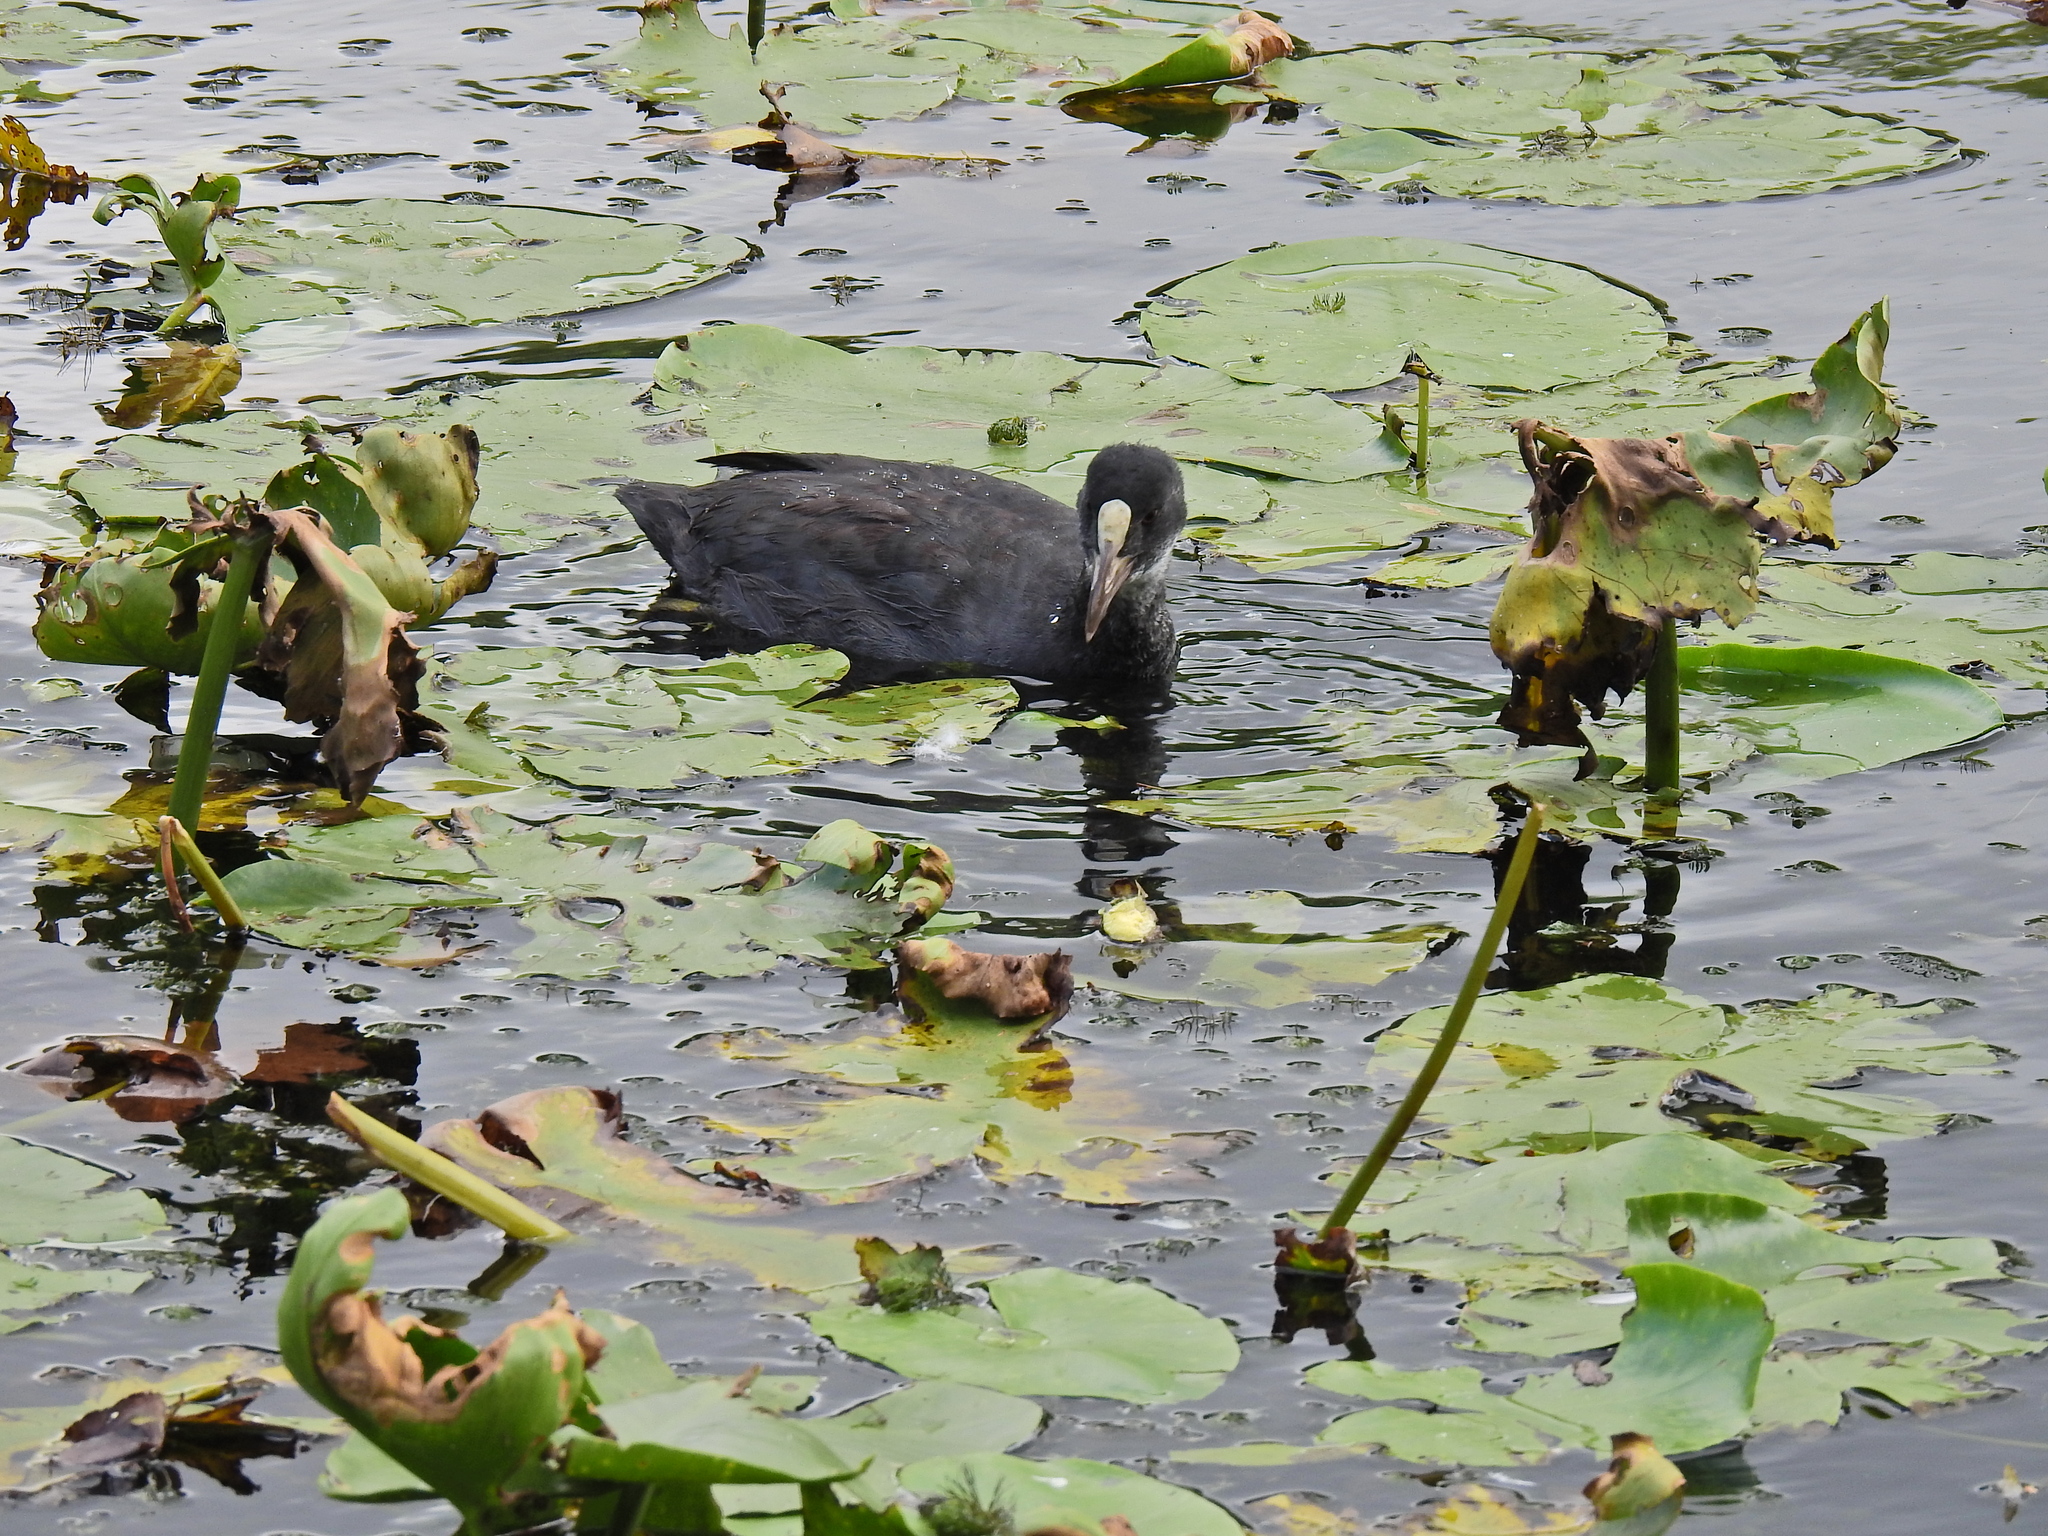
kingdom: Animalia
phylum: Chordata
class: Aves
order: Gruiformes
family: Rallidae
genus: Fulica
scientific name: Fulica atra
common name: Eurasian coot
